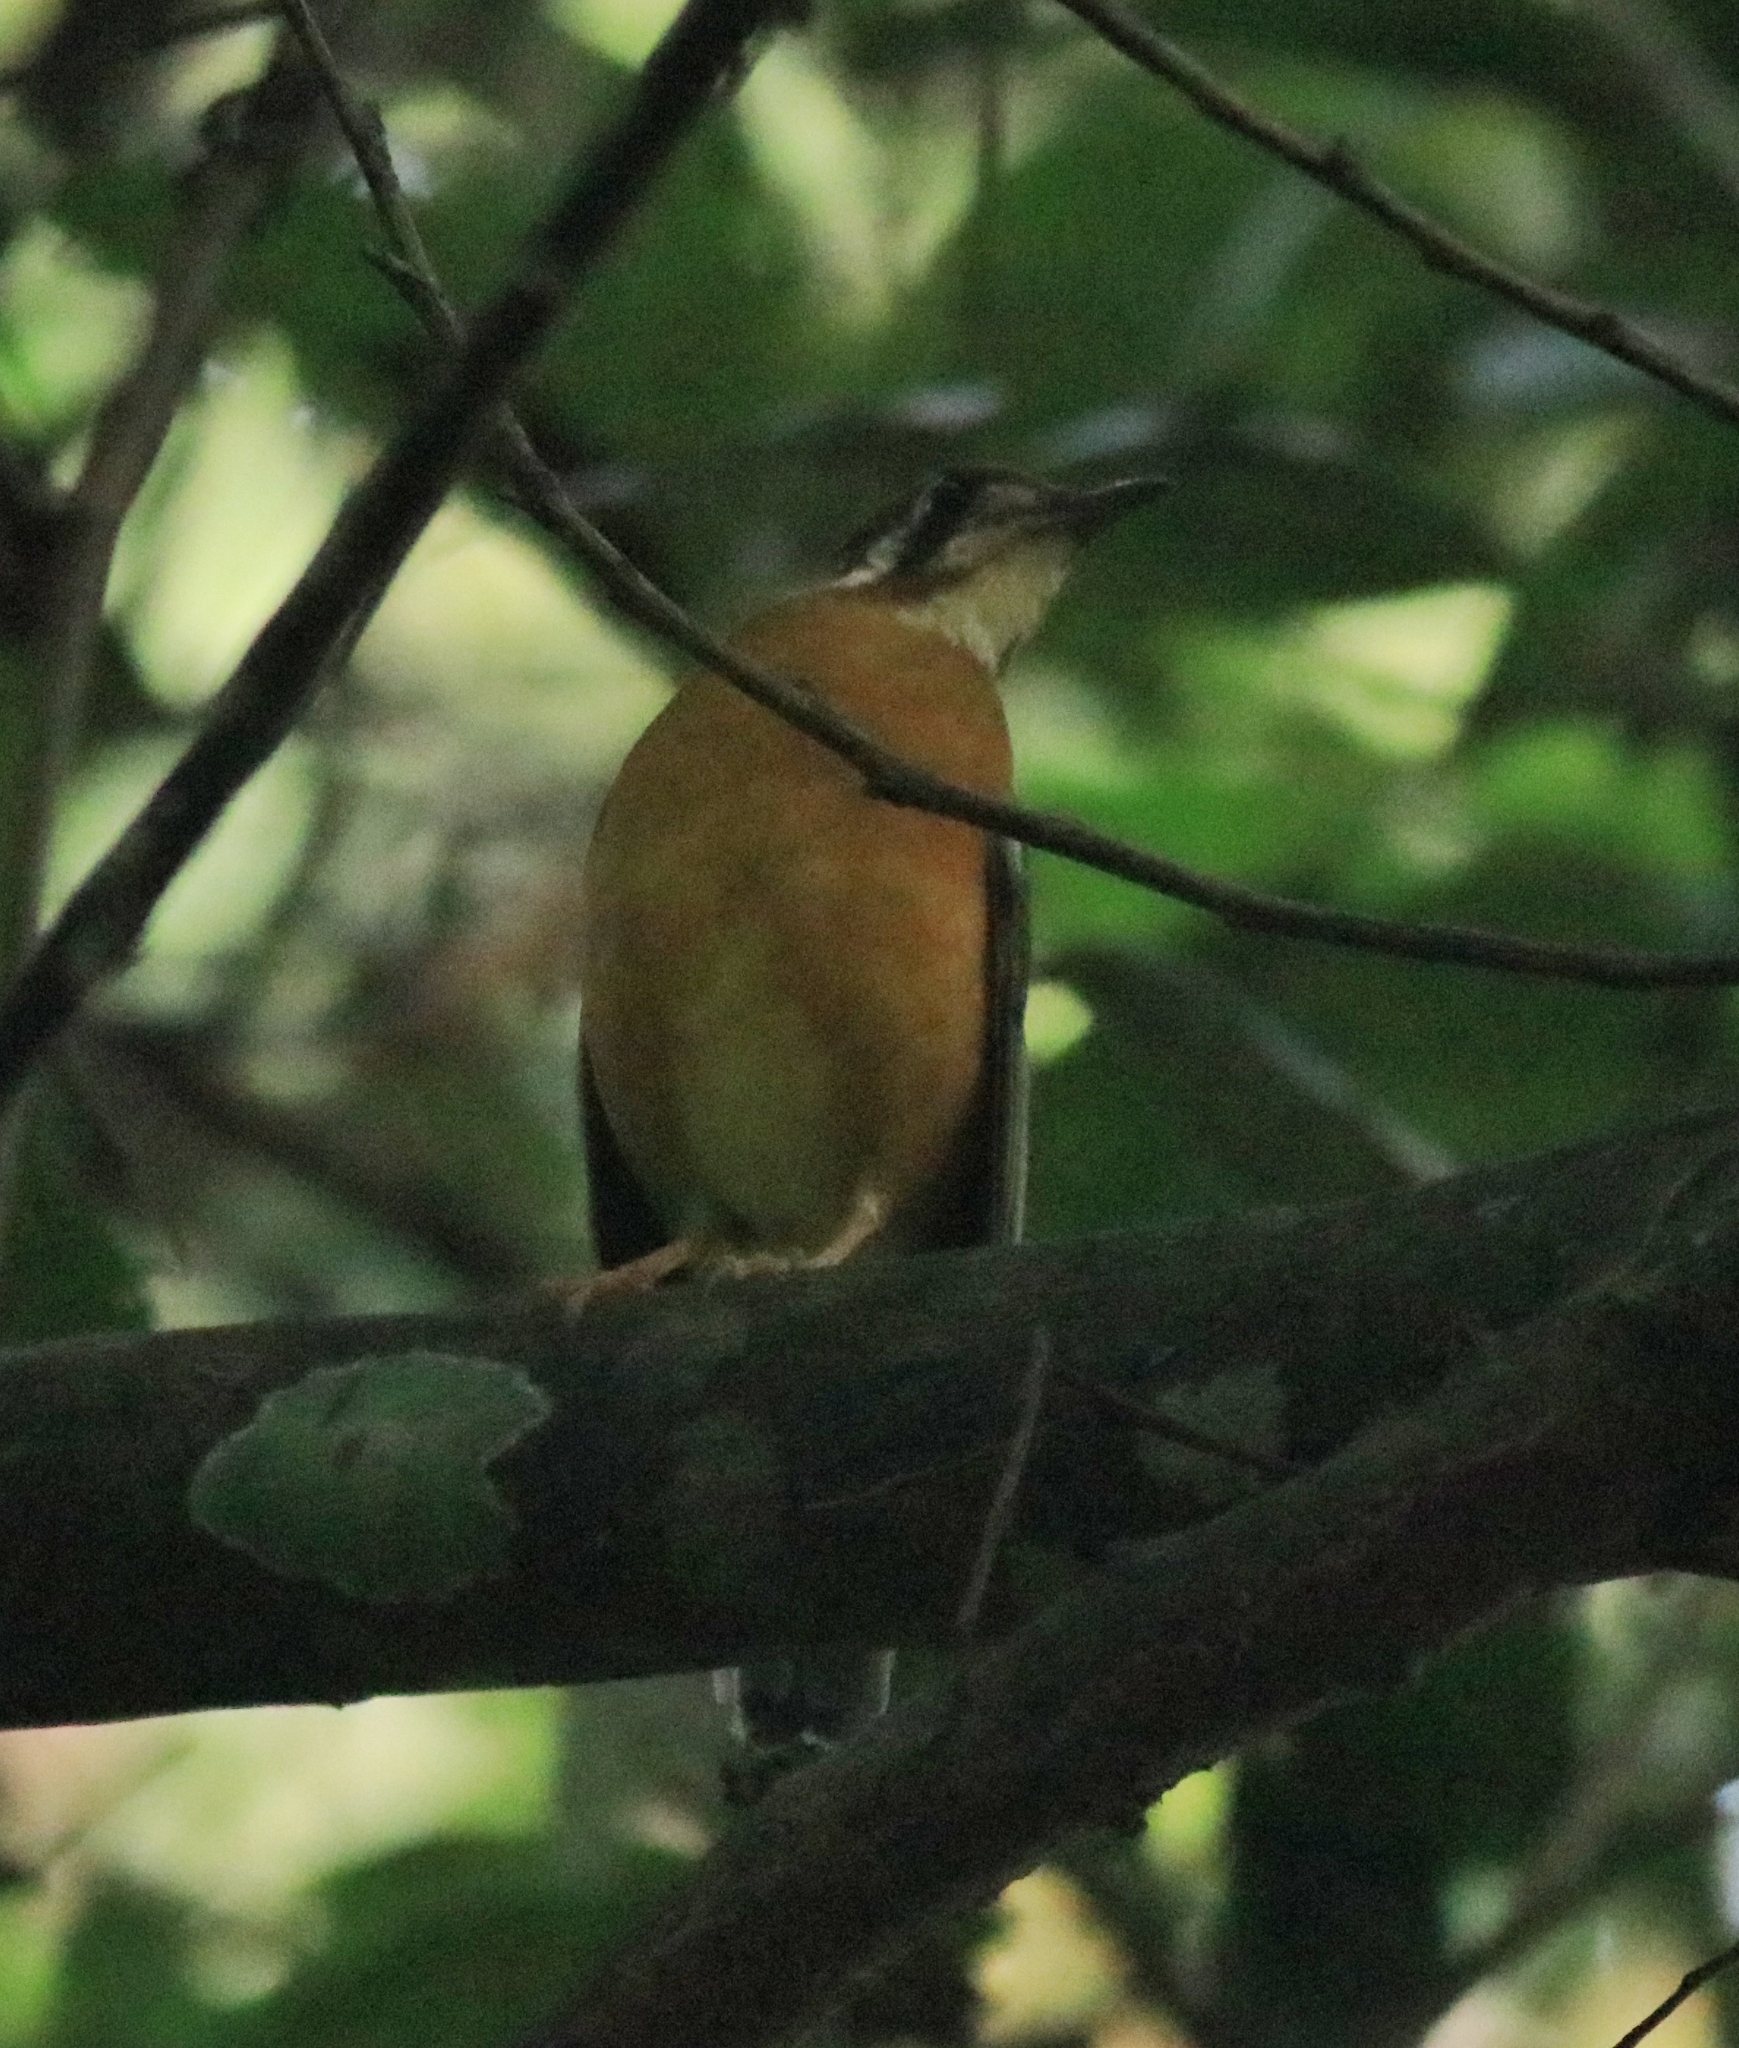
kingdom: Animalia
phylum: Chordata
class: Aves
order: Passeriformes
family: Turdidae
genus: Geokichla
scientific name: Geokichla citrina
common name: Orange-headed thrush
